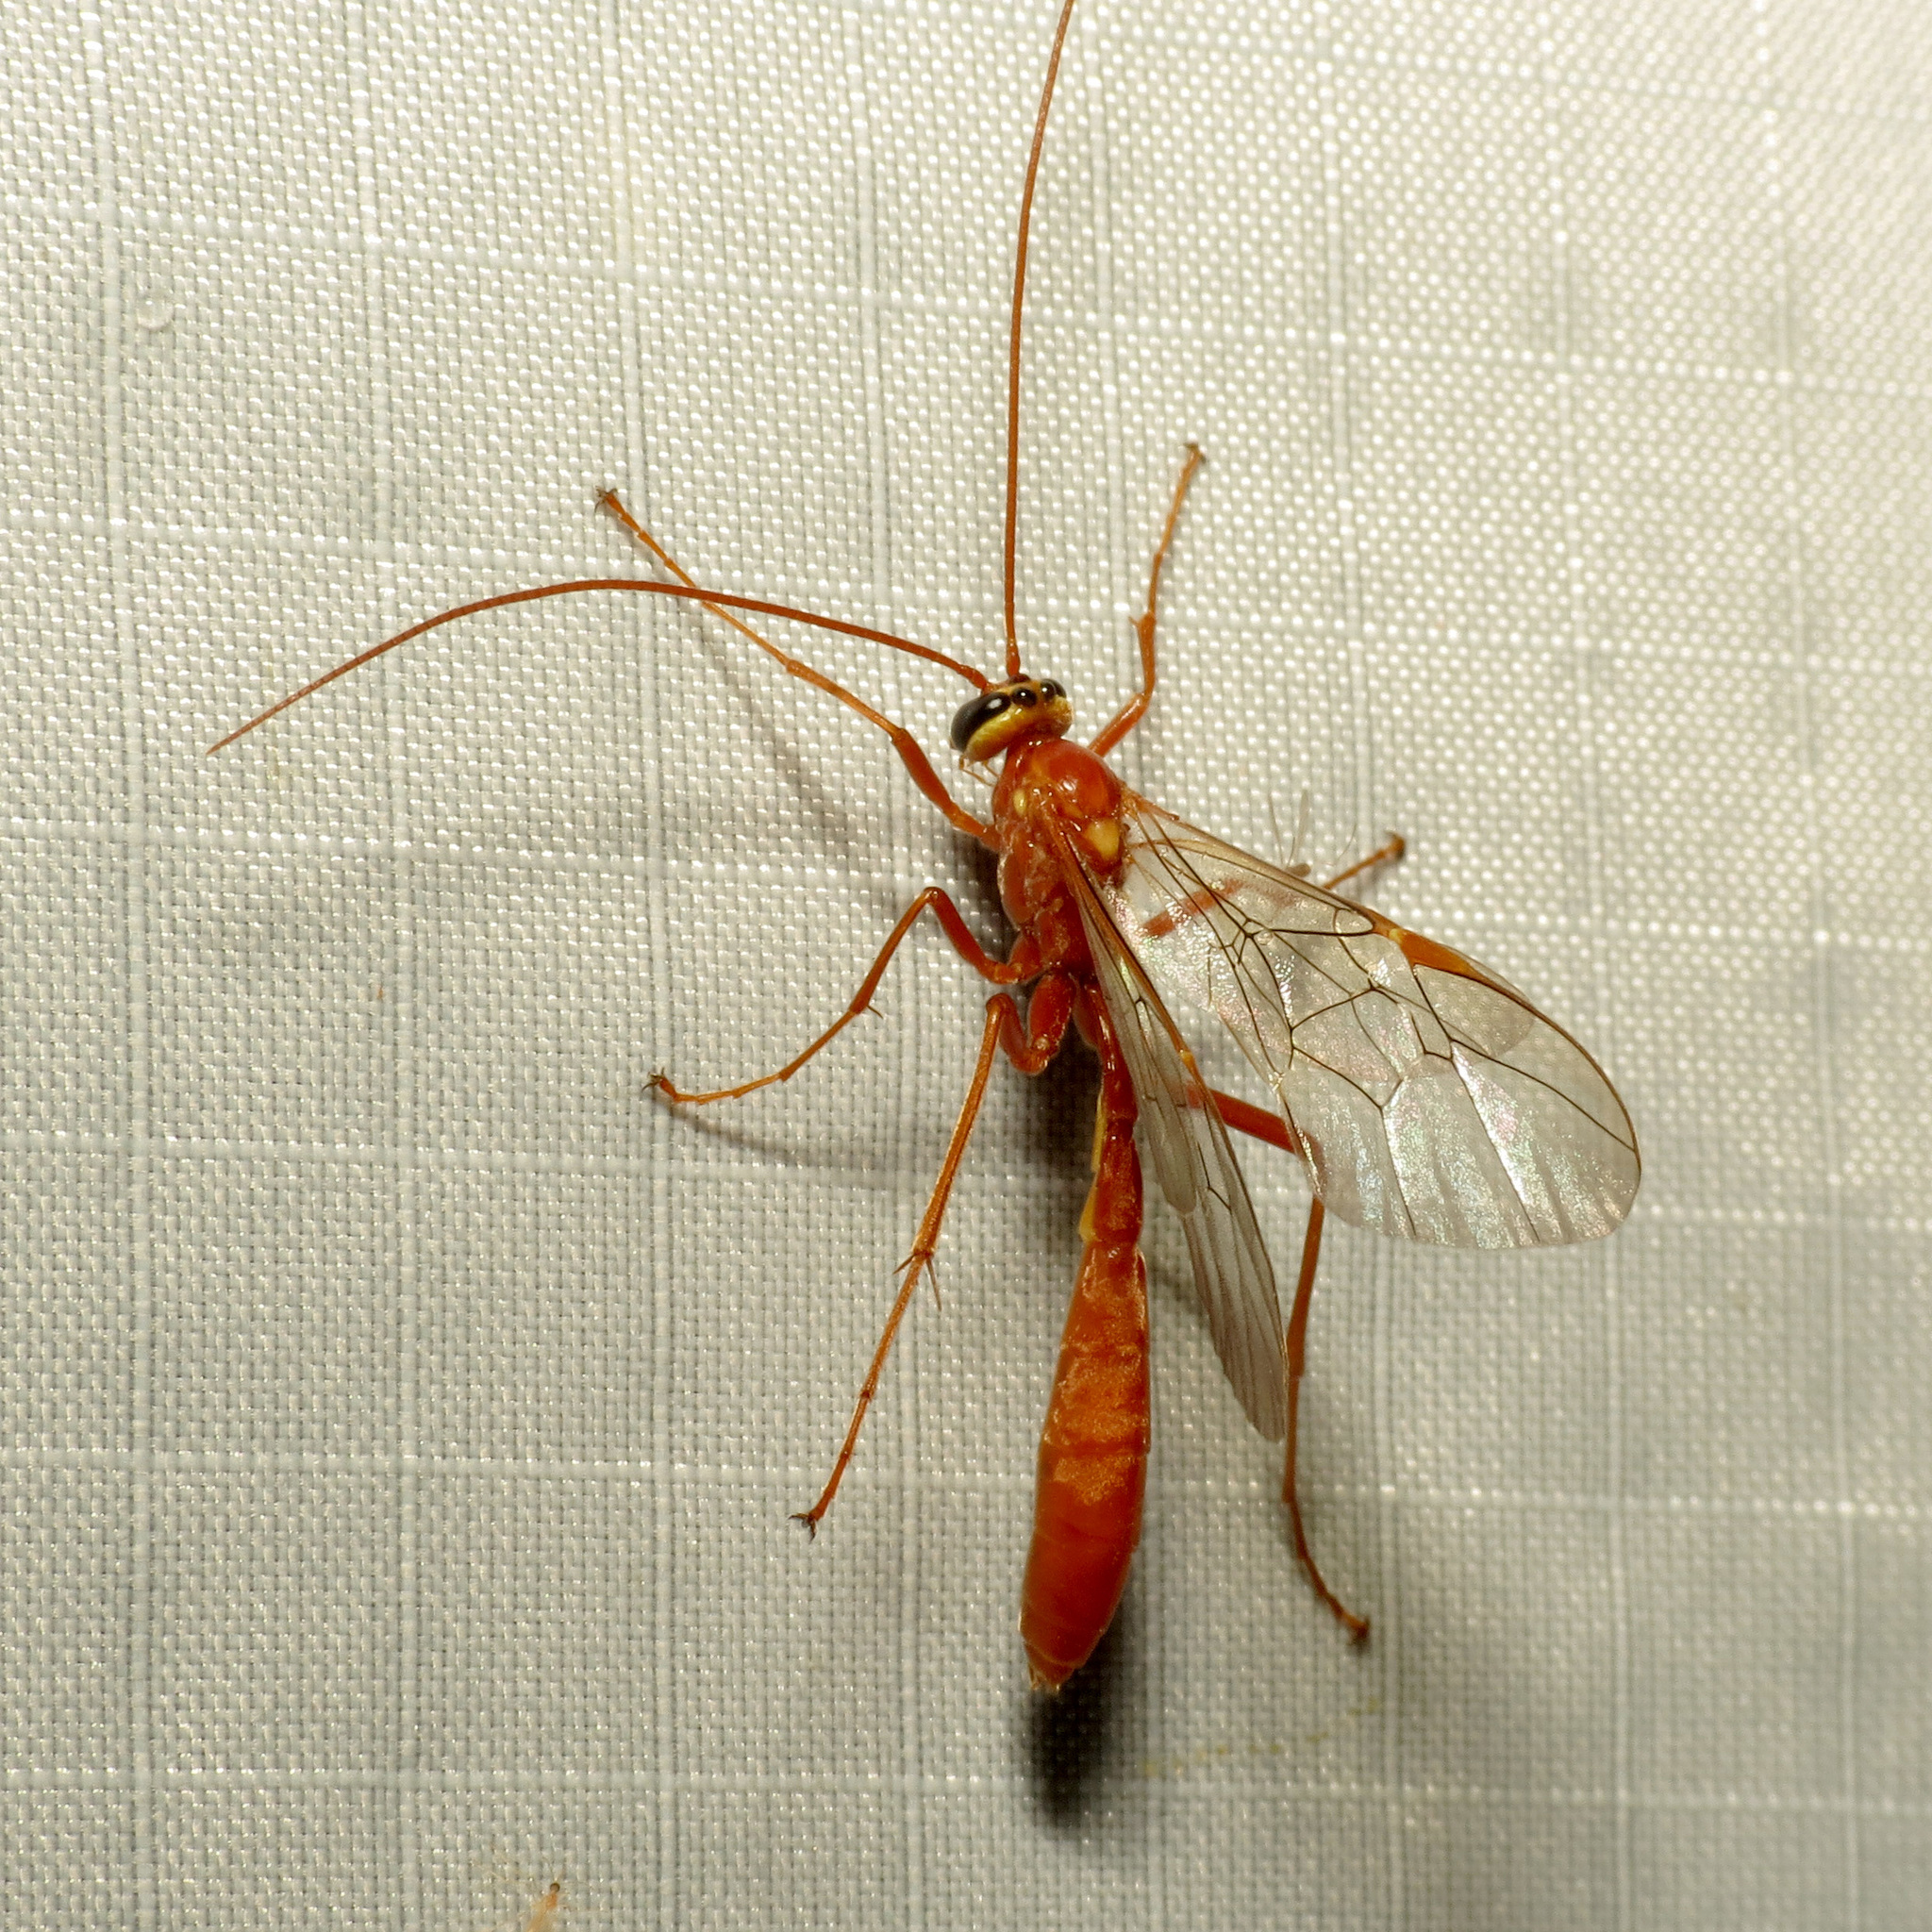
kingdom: Animalia
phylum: Arthropoda
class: Insecta
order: Hymenoptera
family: Ichneumonidae
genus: Ophion
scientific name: Ophion
